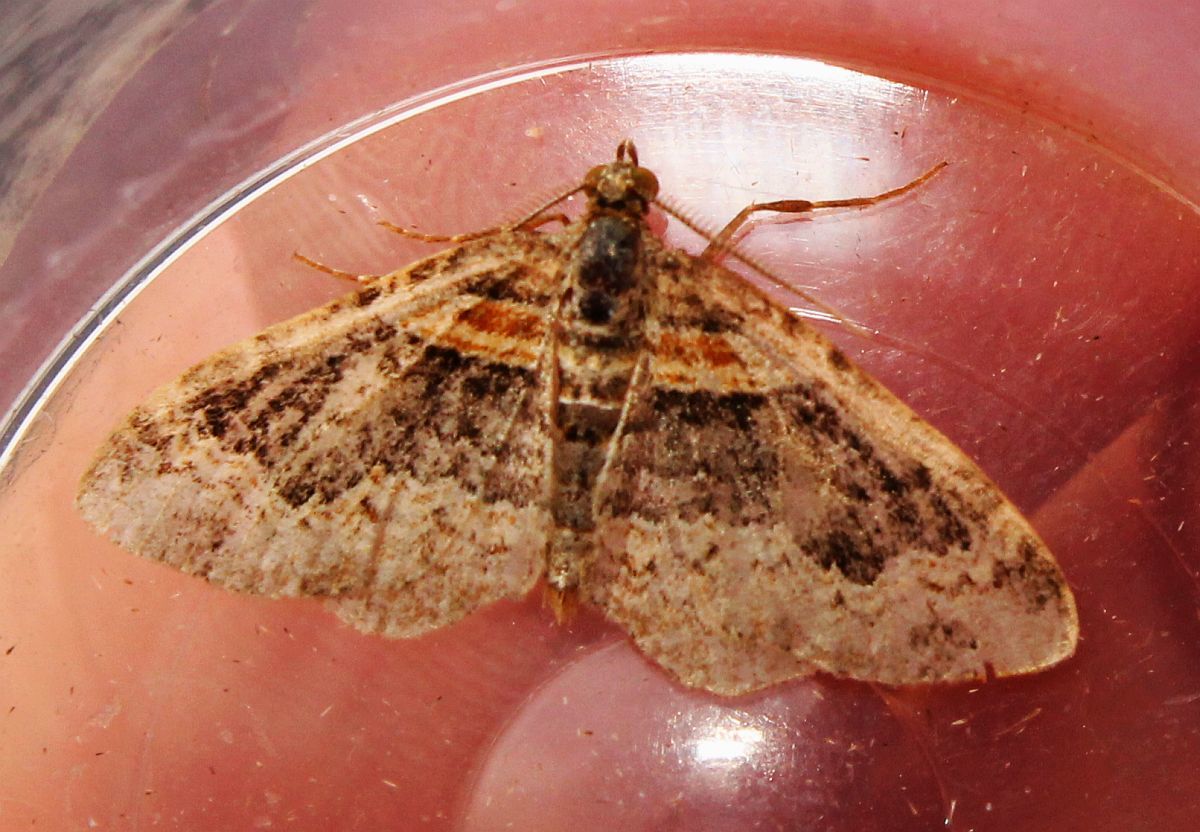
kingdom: Animalia
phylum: Arthropoda
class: Insecta
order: Lepidoptera
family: Geometridae
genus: Xanthorhoe
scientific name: Xanthorhoe ferrugata
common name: Dark-barred twin-spot carpet
